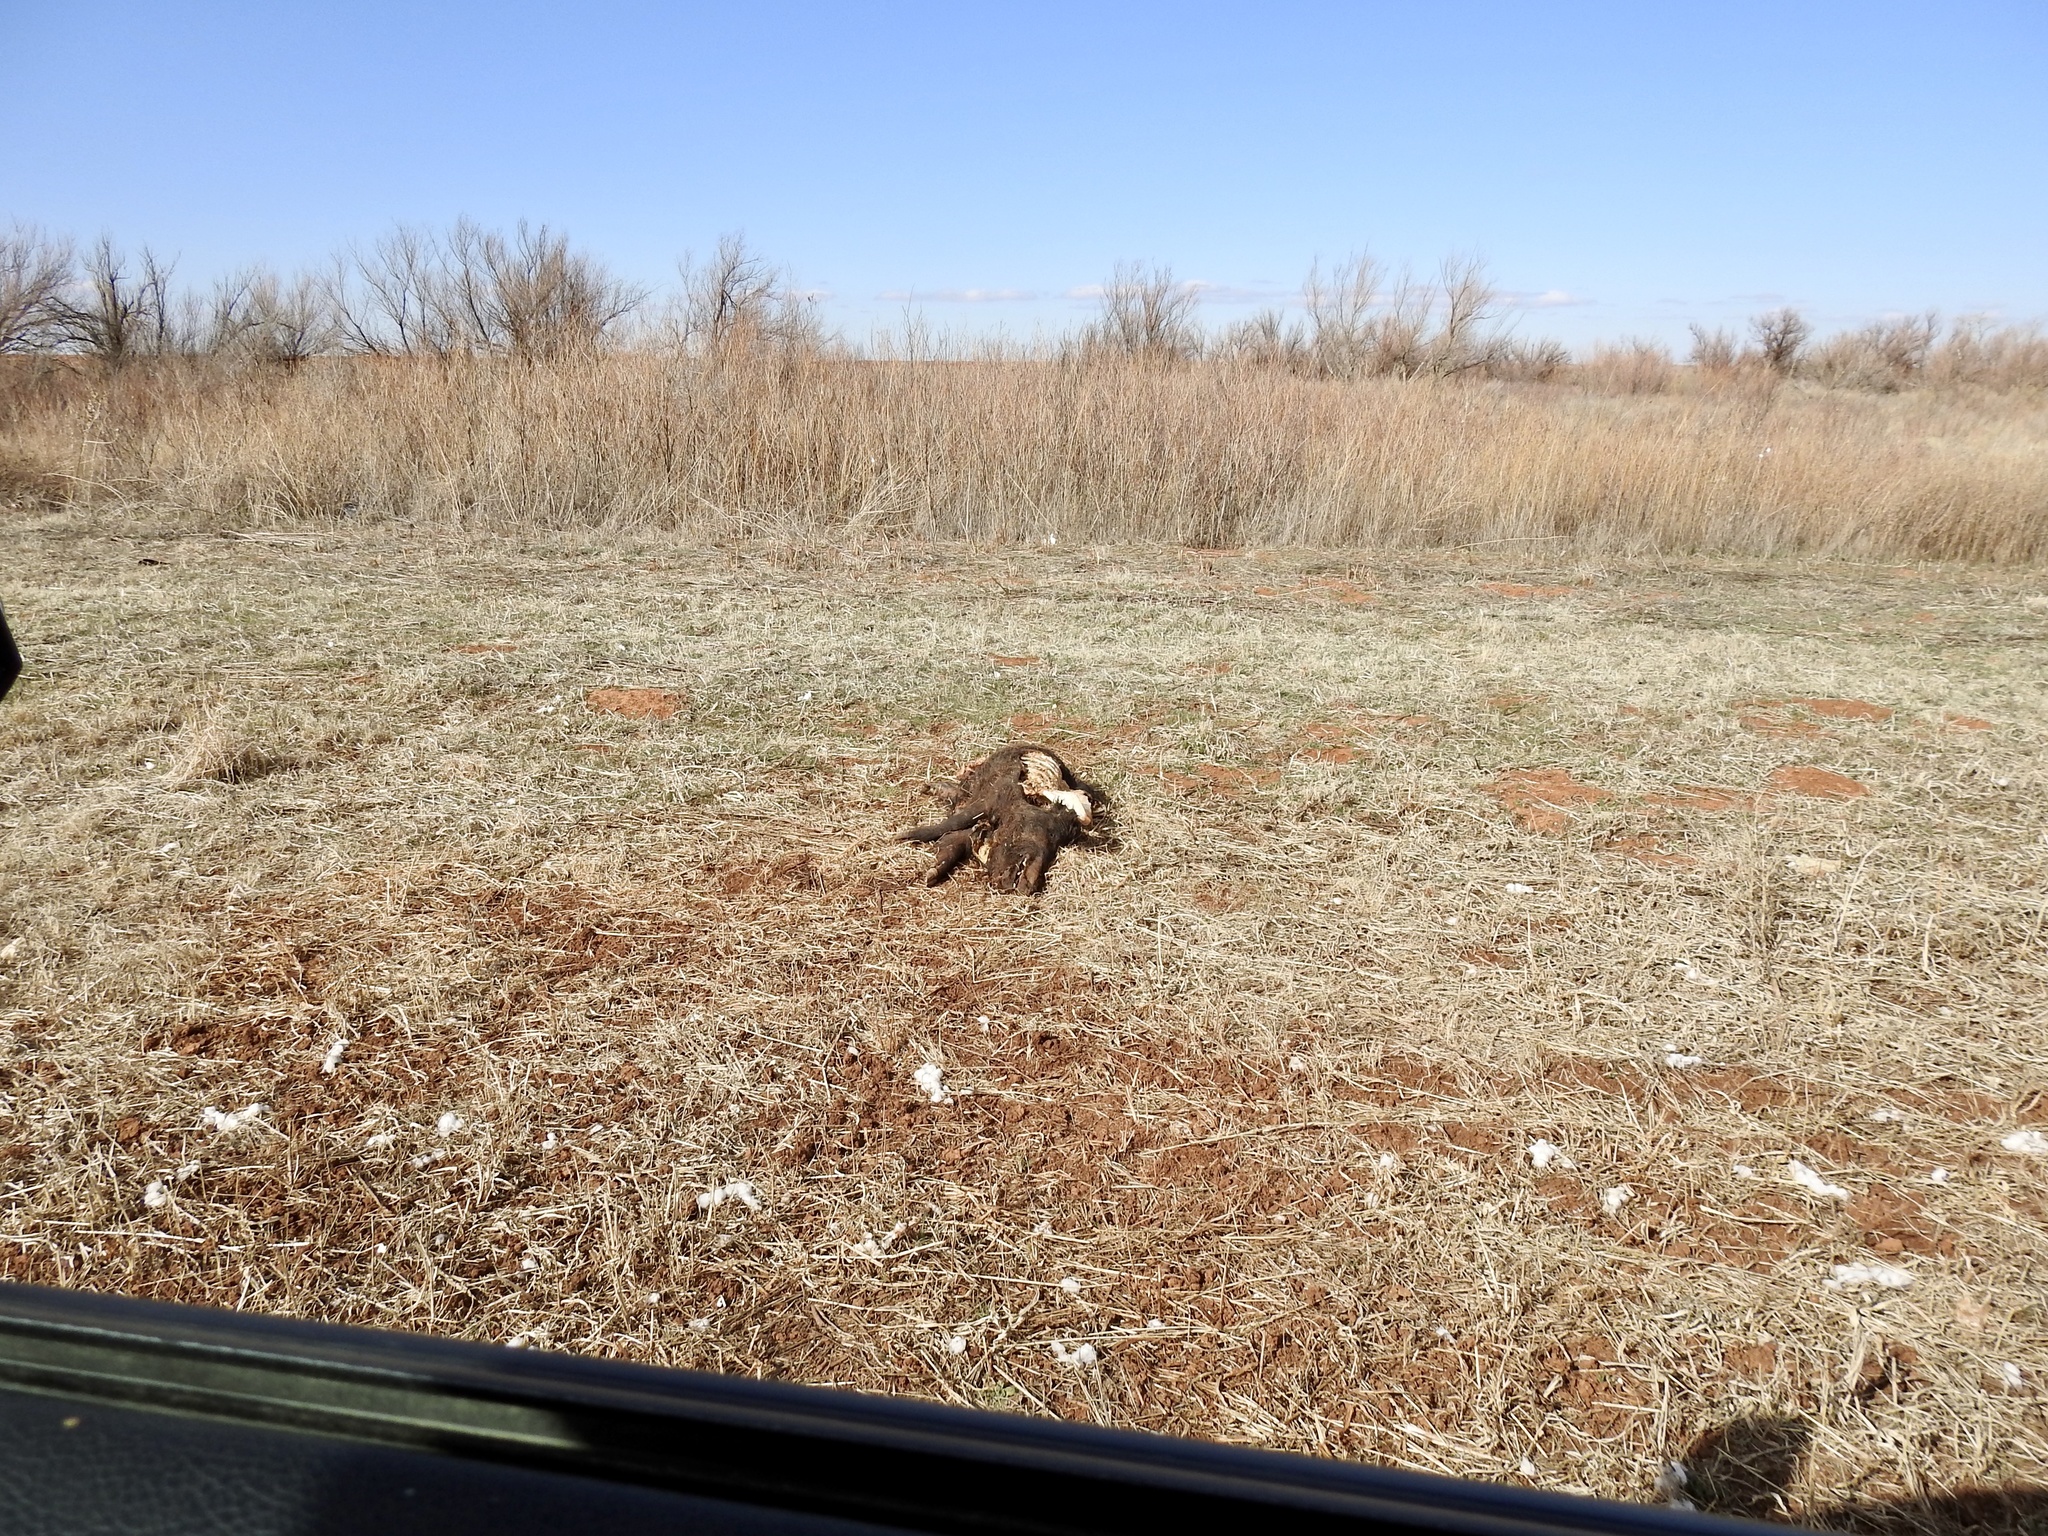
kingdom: Animalia
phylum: Chordata
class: Mammalia
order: Artiodactyla
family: Suidae
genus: Sus
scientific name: Sus scrofa
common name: Wild boar
